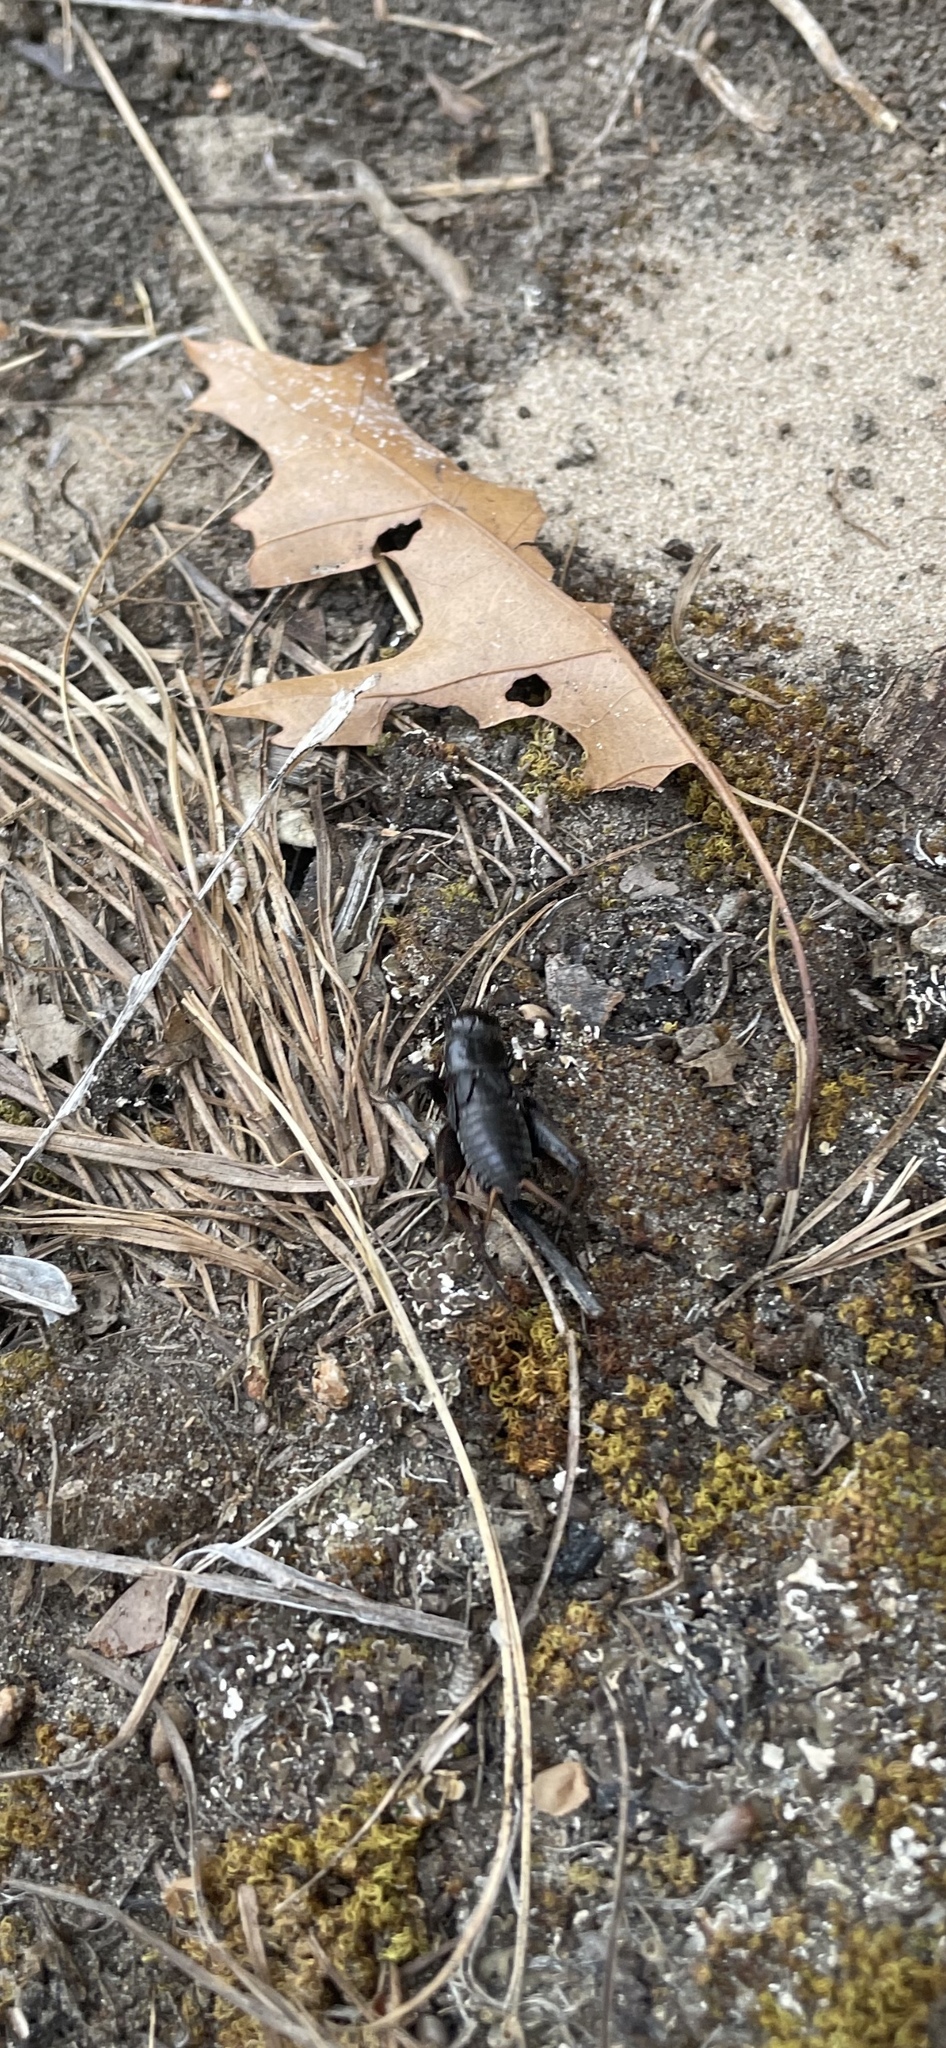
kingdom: Animalia
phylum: Arthropoda
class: Insecta
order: Orthoptera
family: Gryllidae
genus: Gryllus
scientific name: Gryllus veletis
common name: Spring field cricket
